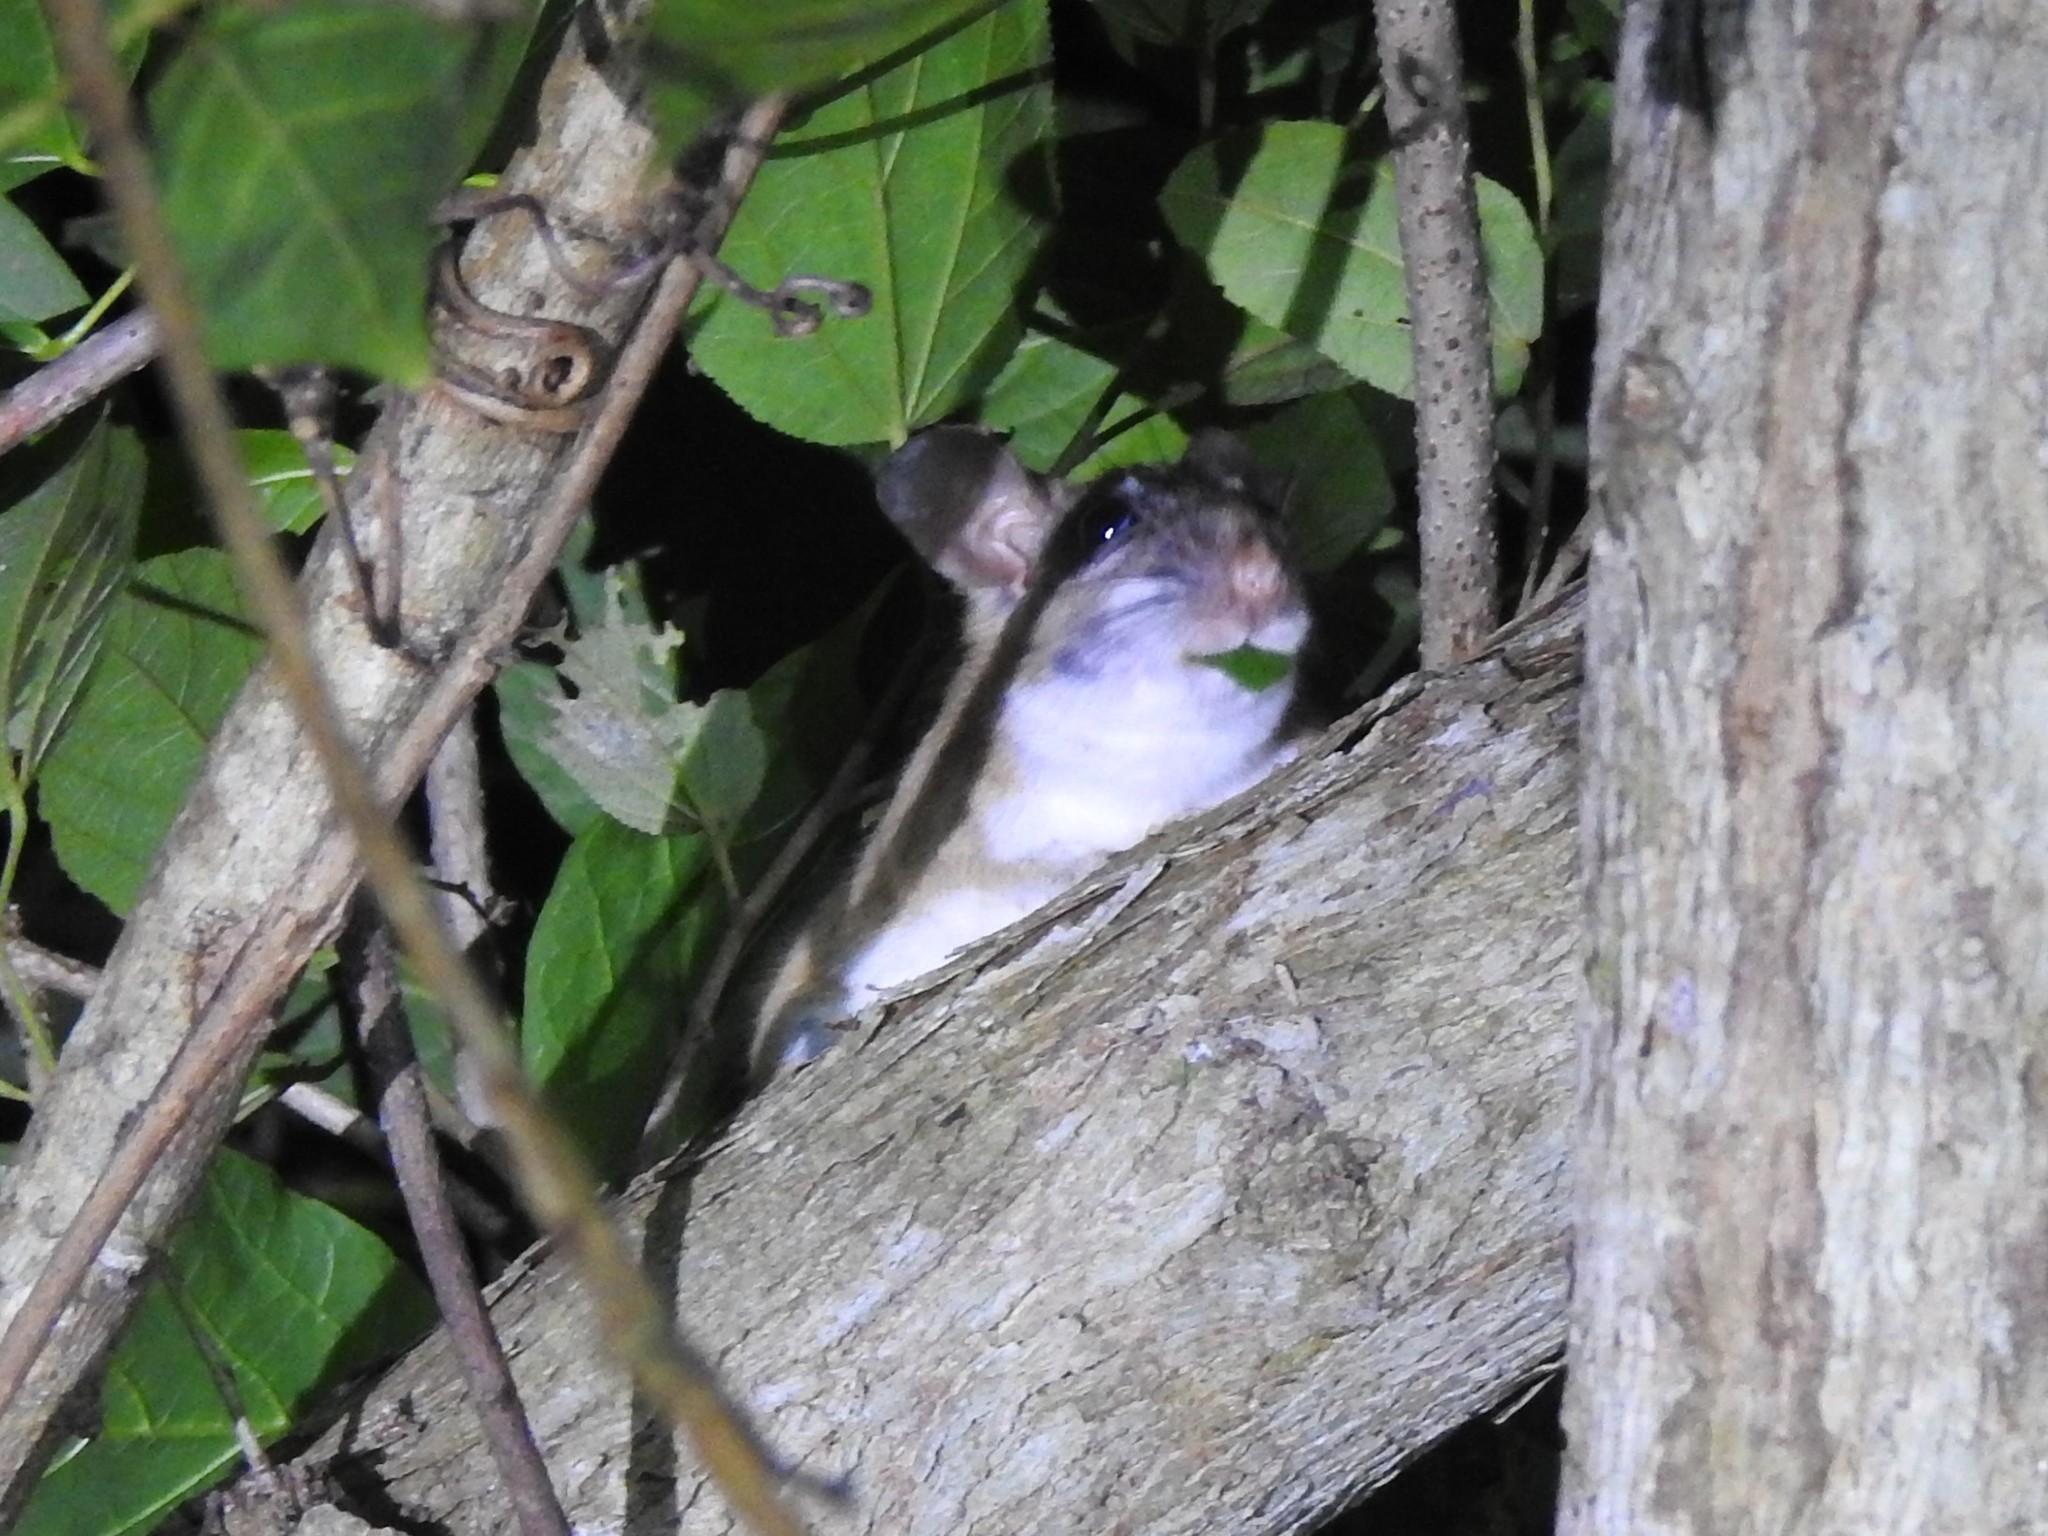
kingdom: Animalia
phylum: Chordata
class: Mammalia
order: Rodentia
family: Cricetidae
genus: Xenomys
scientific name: Xenomys nelsoni
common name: Magdalena woodrat
